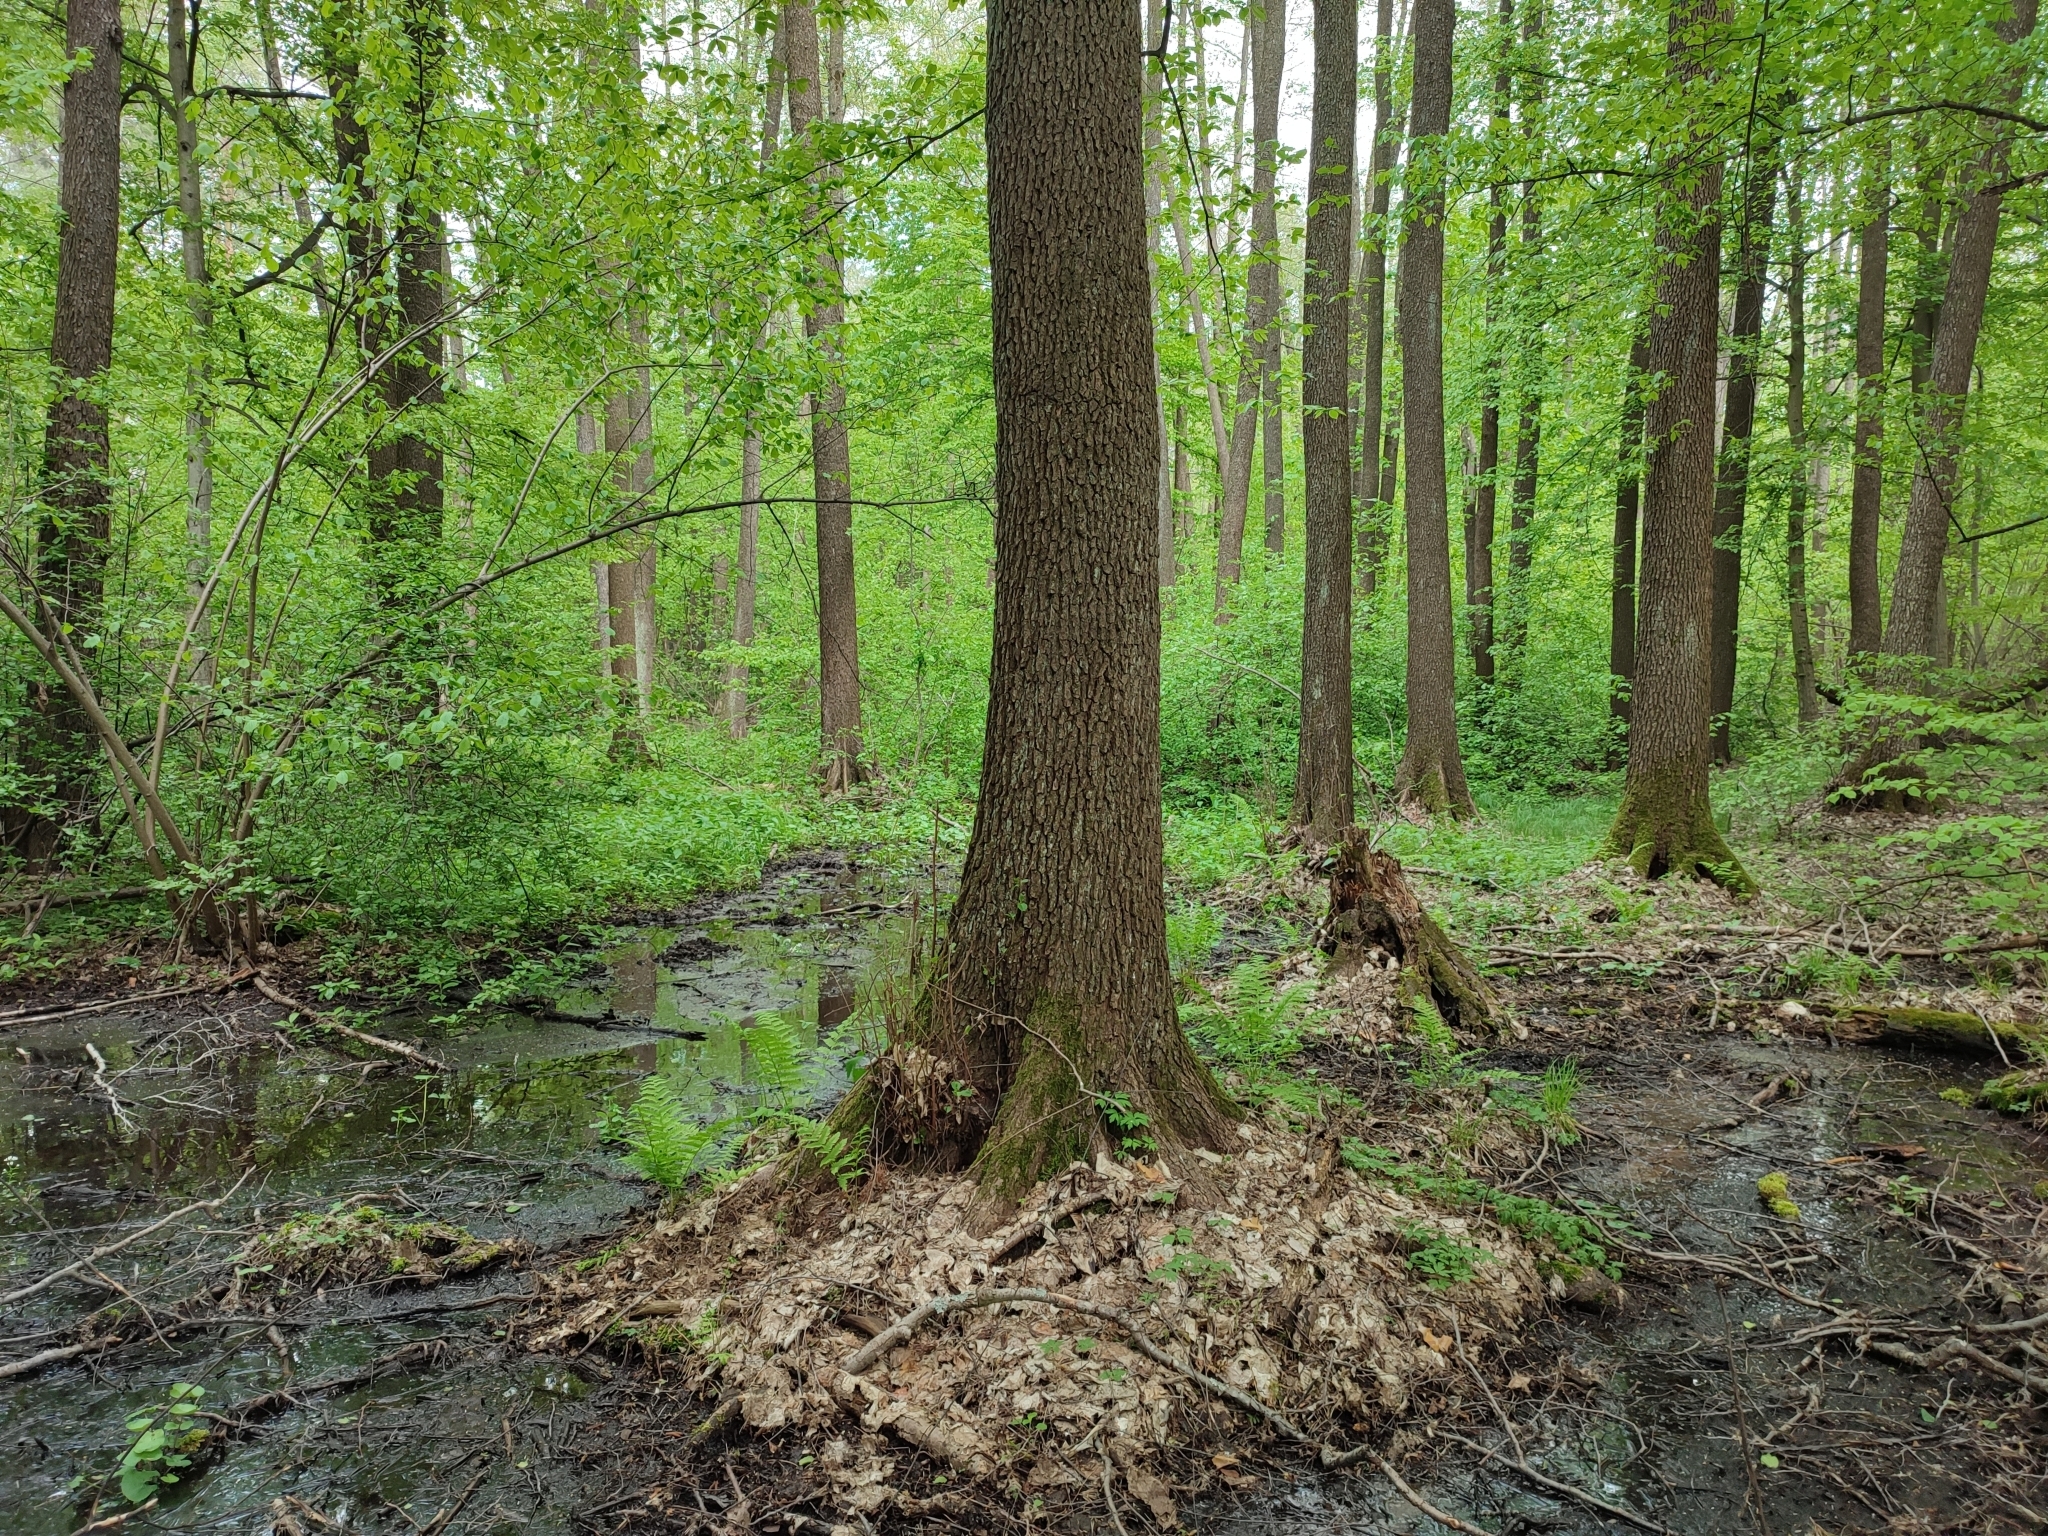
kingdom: Plantae
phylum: Tracheophyta
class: Magnoliopsida
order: Fagales
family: Betulaceae
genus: Alnus
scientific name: Alnus glutinosa
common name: Black alder
